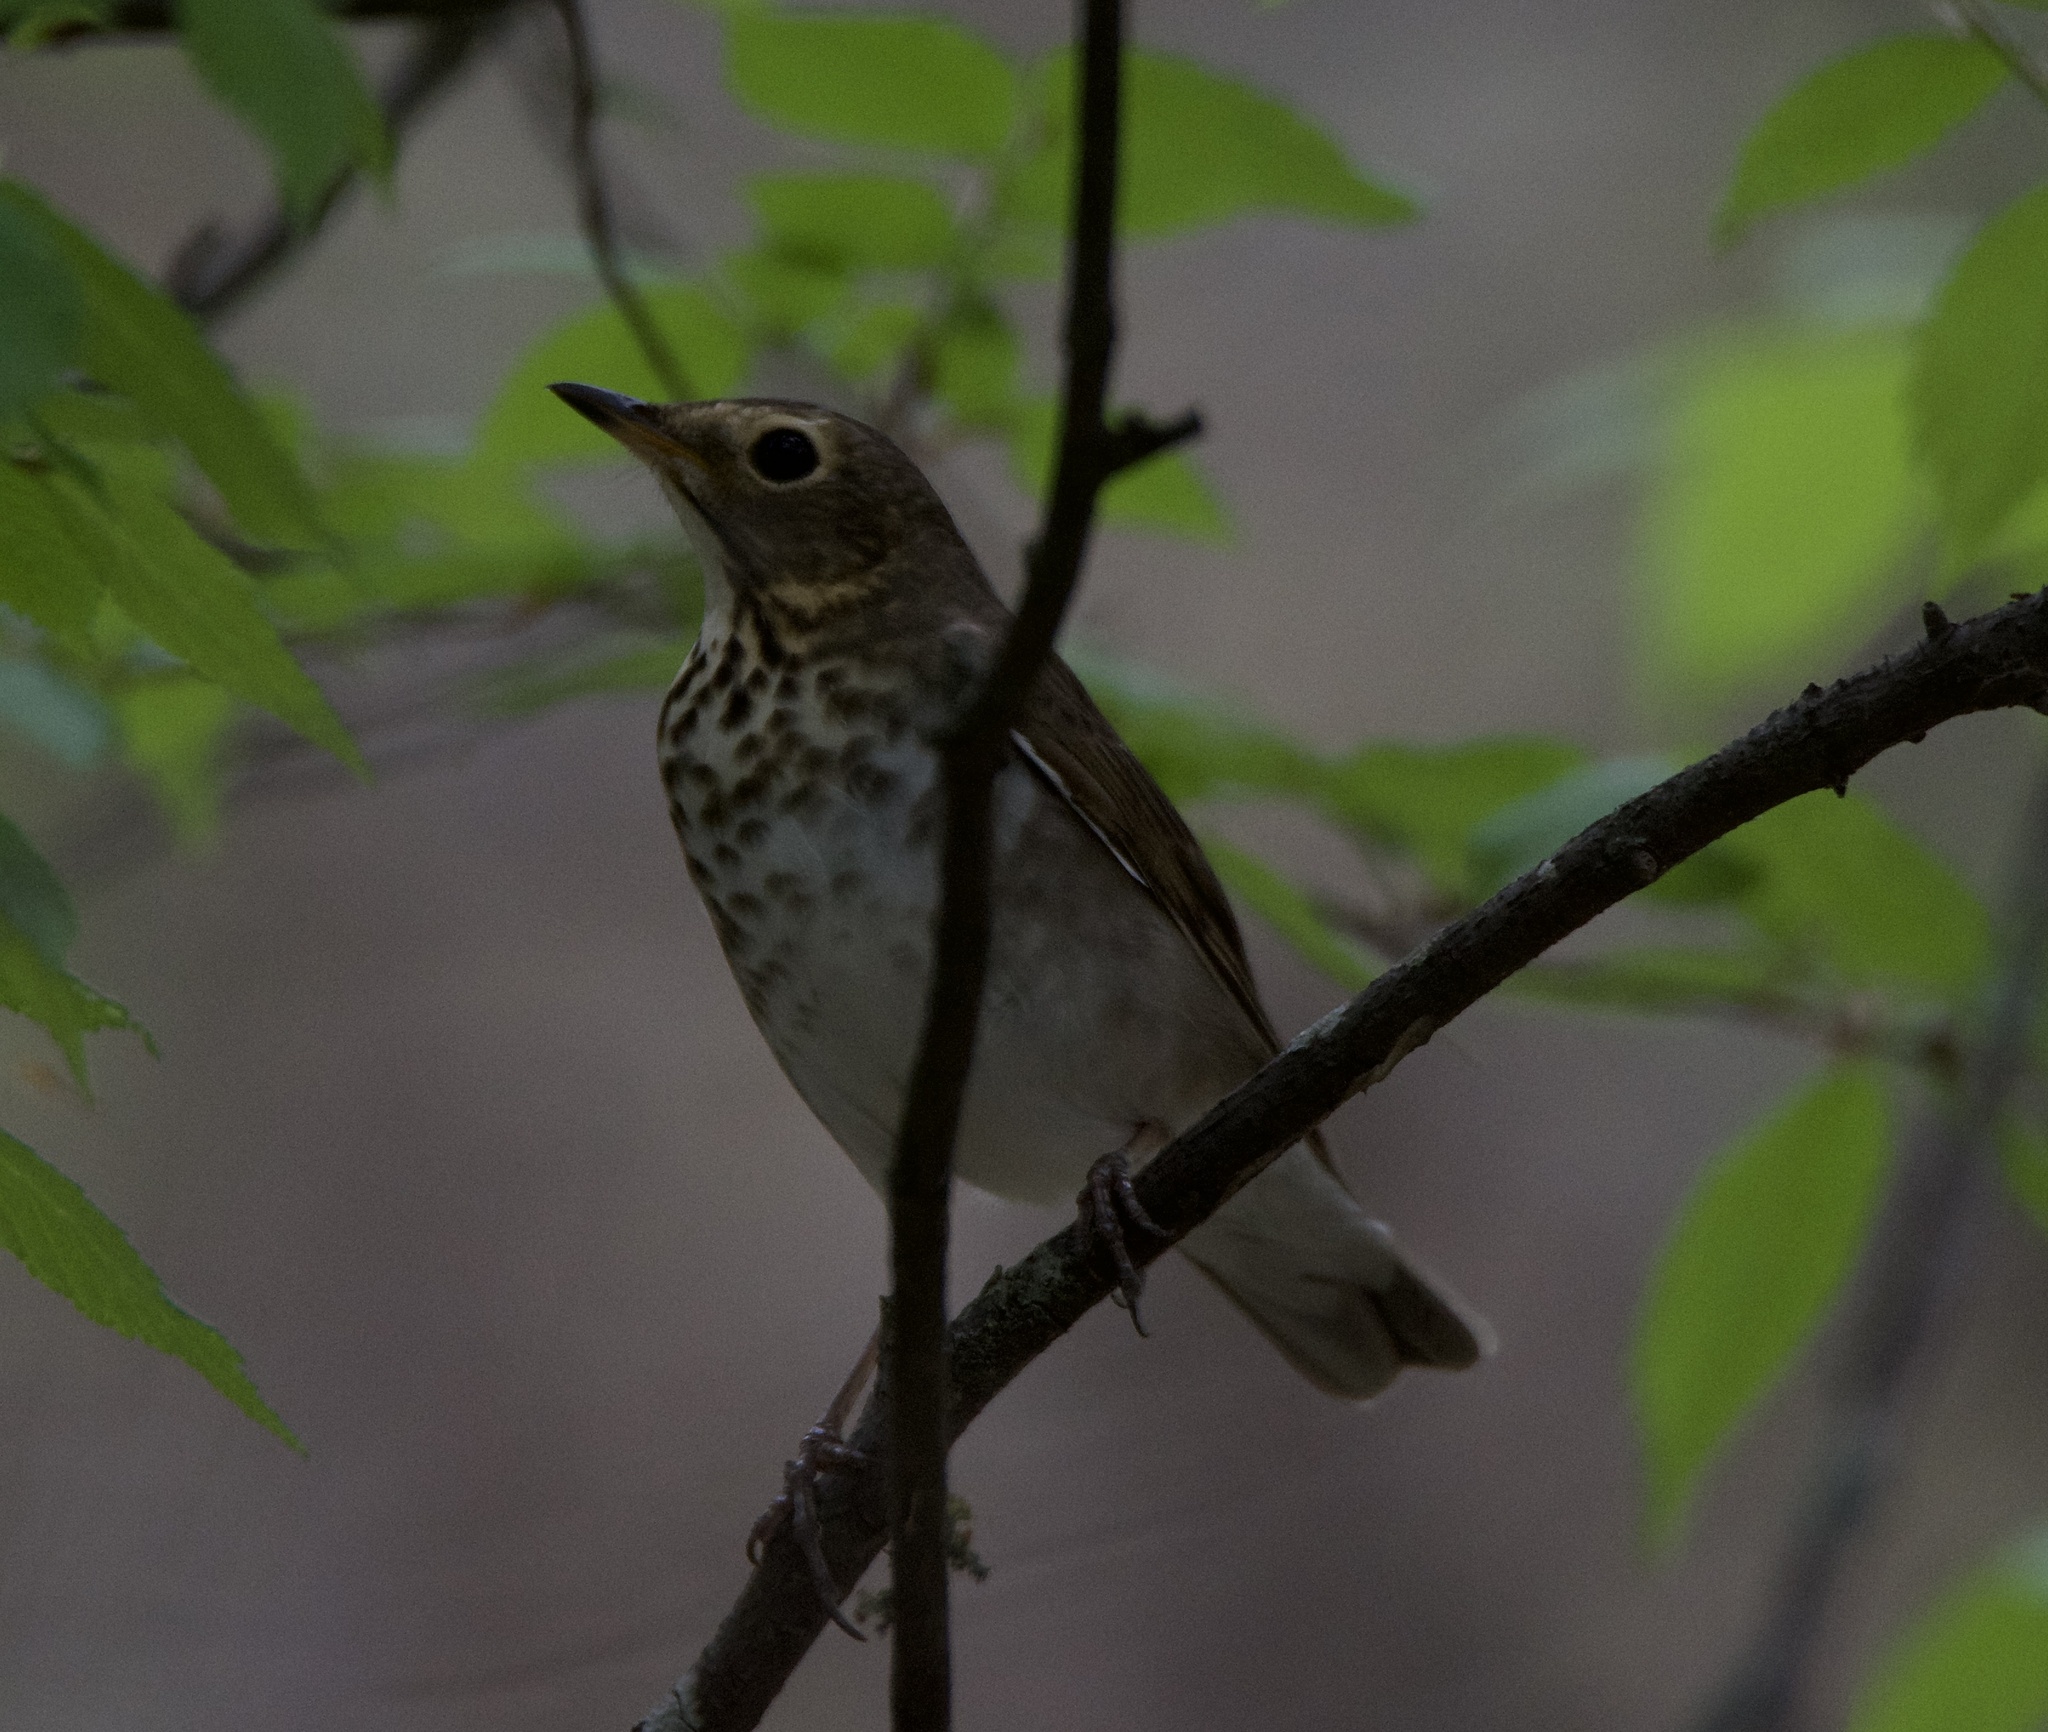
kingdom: Animalia
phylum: Chordata
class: Aves
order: Passeriformes
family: Turdidae
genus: Catharus
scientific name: Catharus ustulatus
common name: Swainson's thrush
